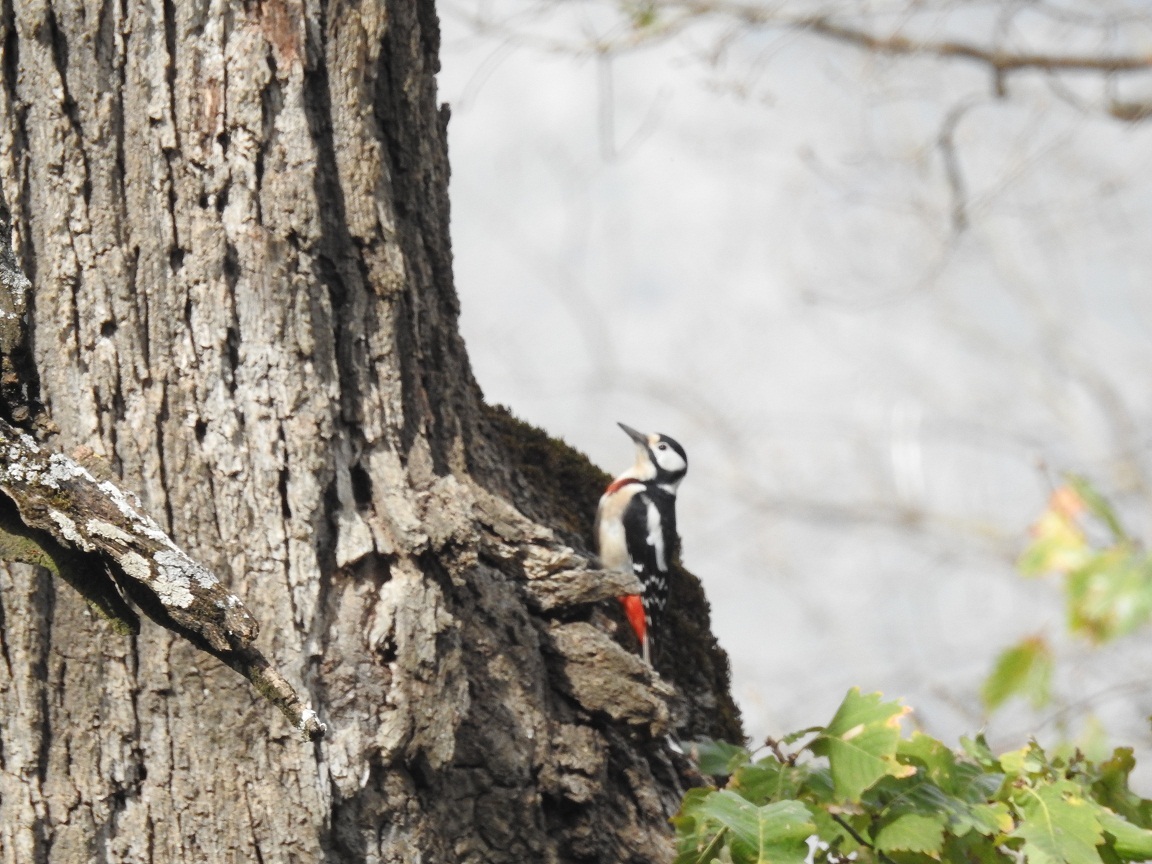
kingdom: Animalia
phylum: Chordata
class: Aves
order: Piciformes
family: Picidae
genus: Dendrocopos
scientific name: Dendrocopos major
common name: Great spotted woodpecker
